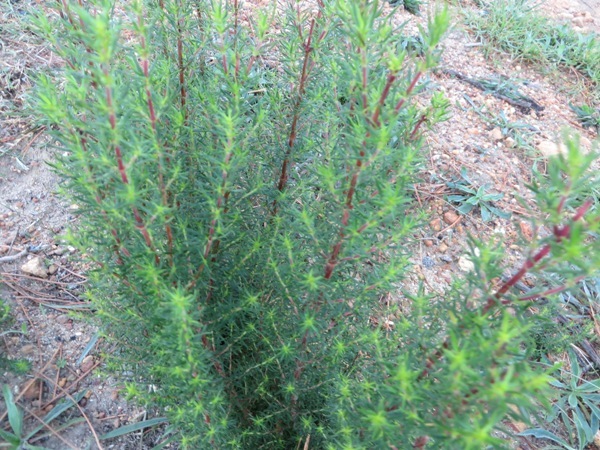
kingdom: Plantae
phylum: Tracheophyta
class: Magnoliopsida
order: Gentianales
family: Rubiaceae
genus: Anthospermum
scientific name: Anthospermum aethiopicum
